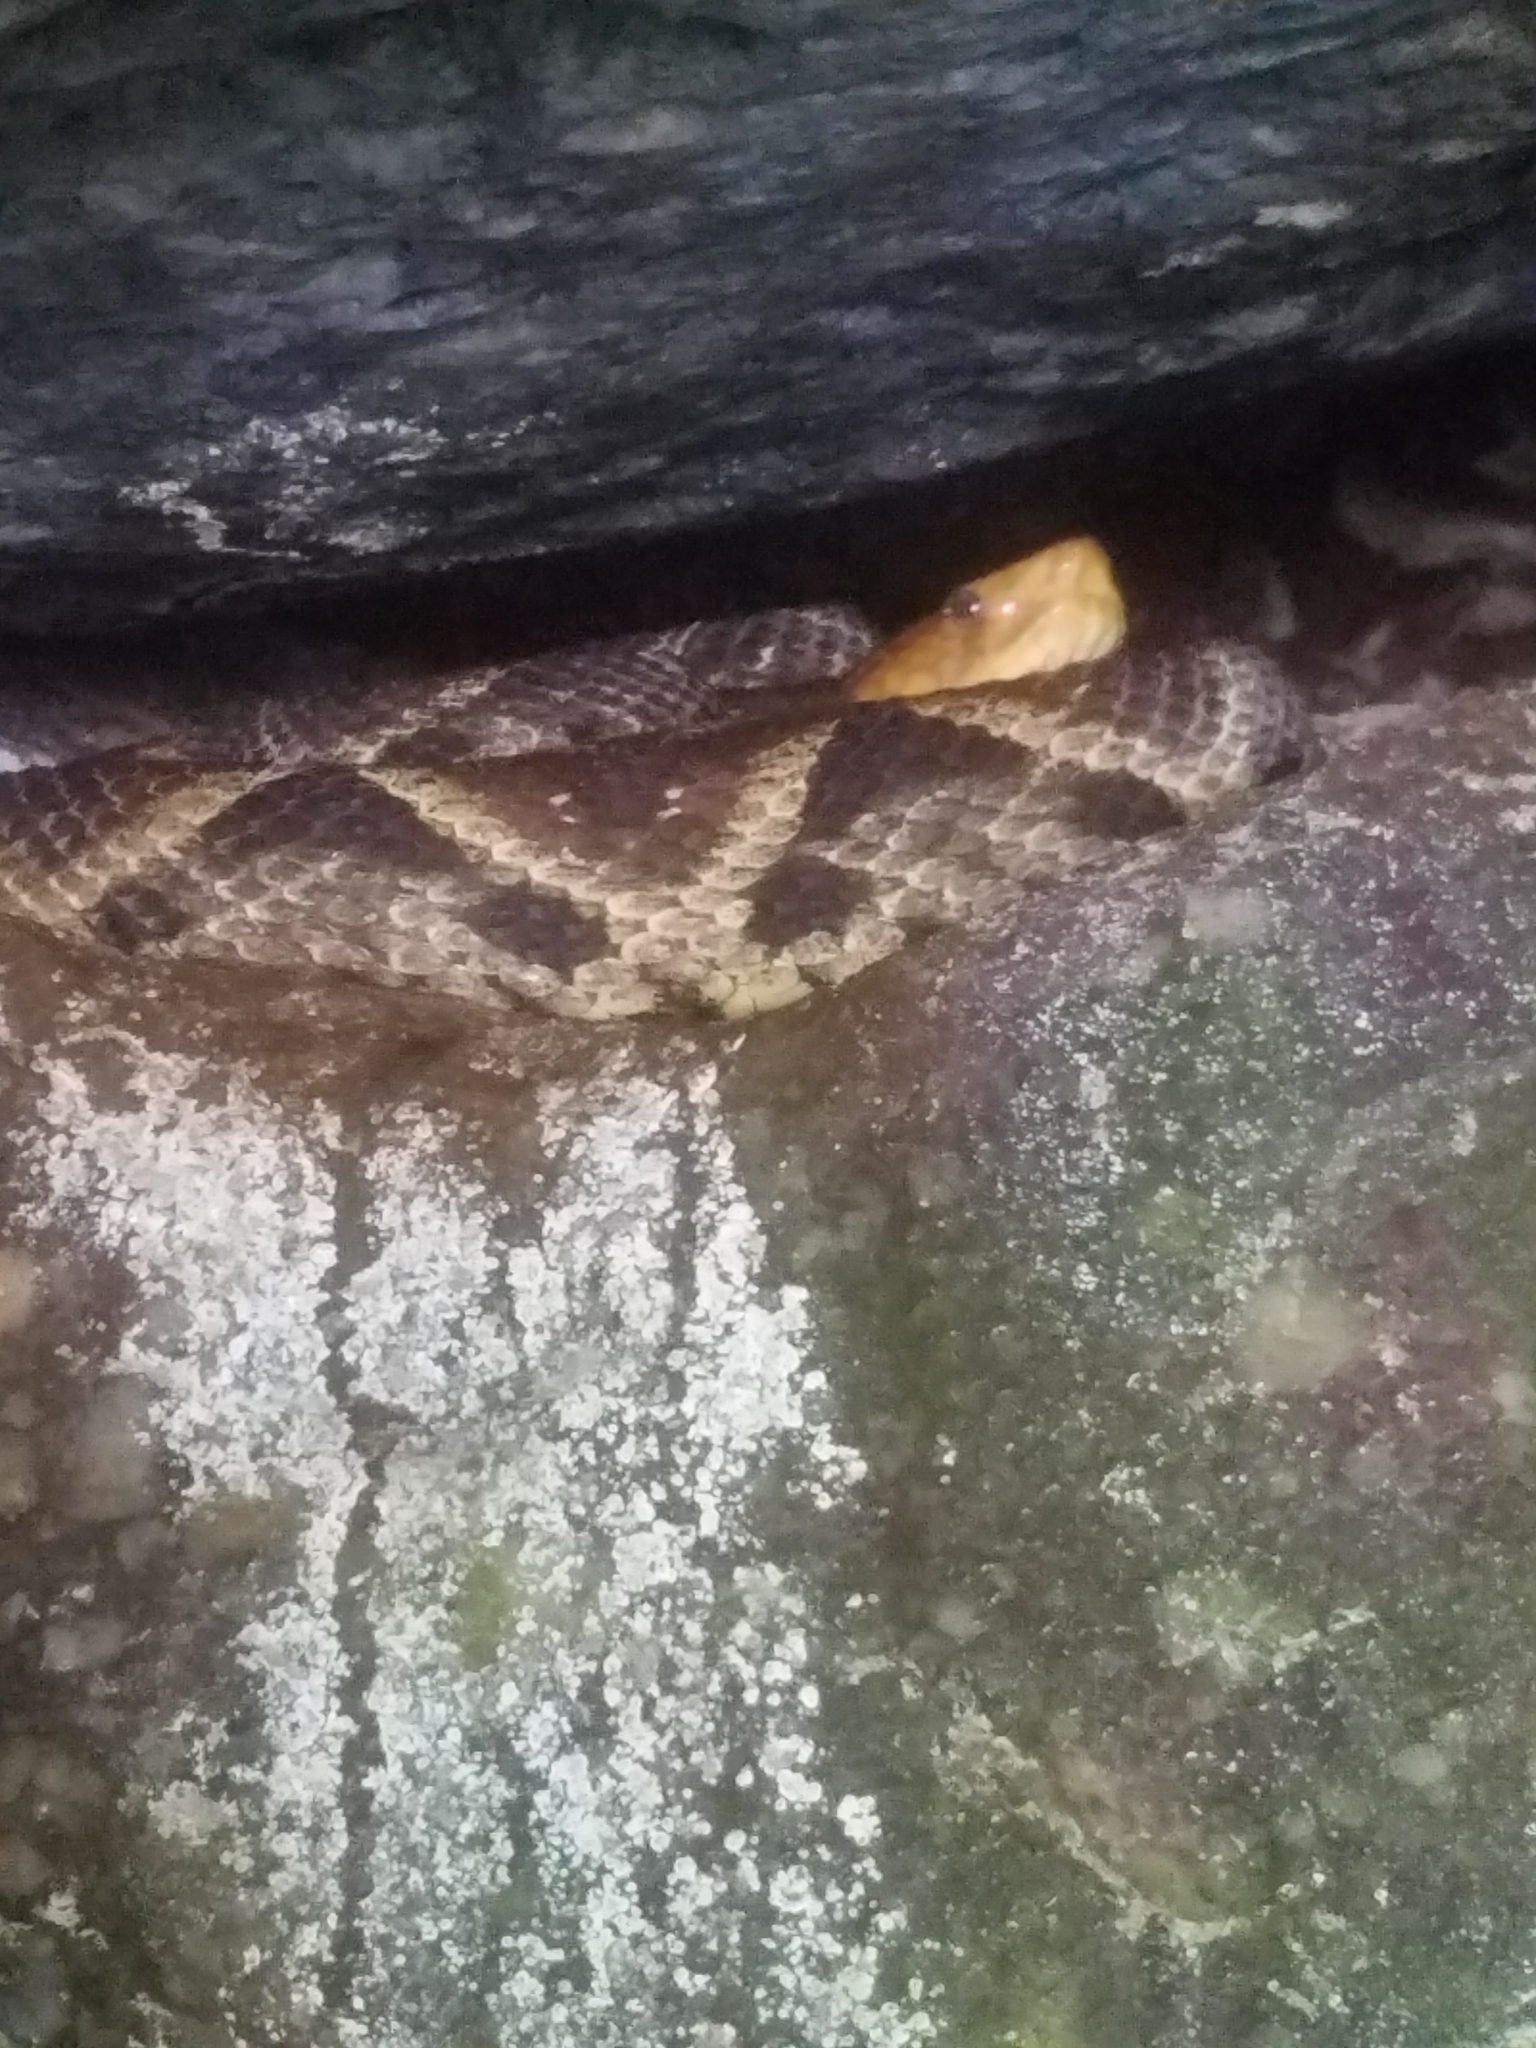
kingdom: Animalia
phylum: Chordata
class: Squamata
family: Viperidae
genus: Bothrops
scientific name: Bothrops asper
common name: Terciopelo
